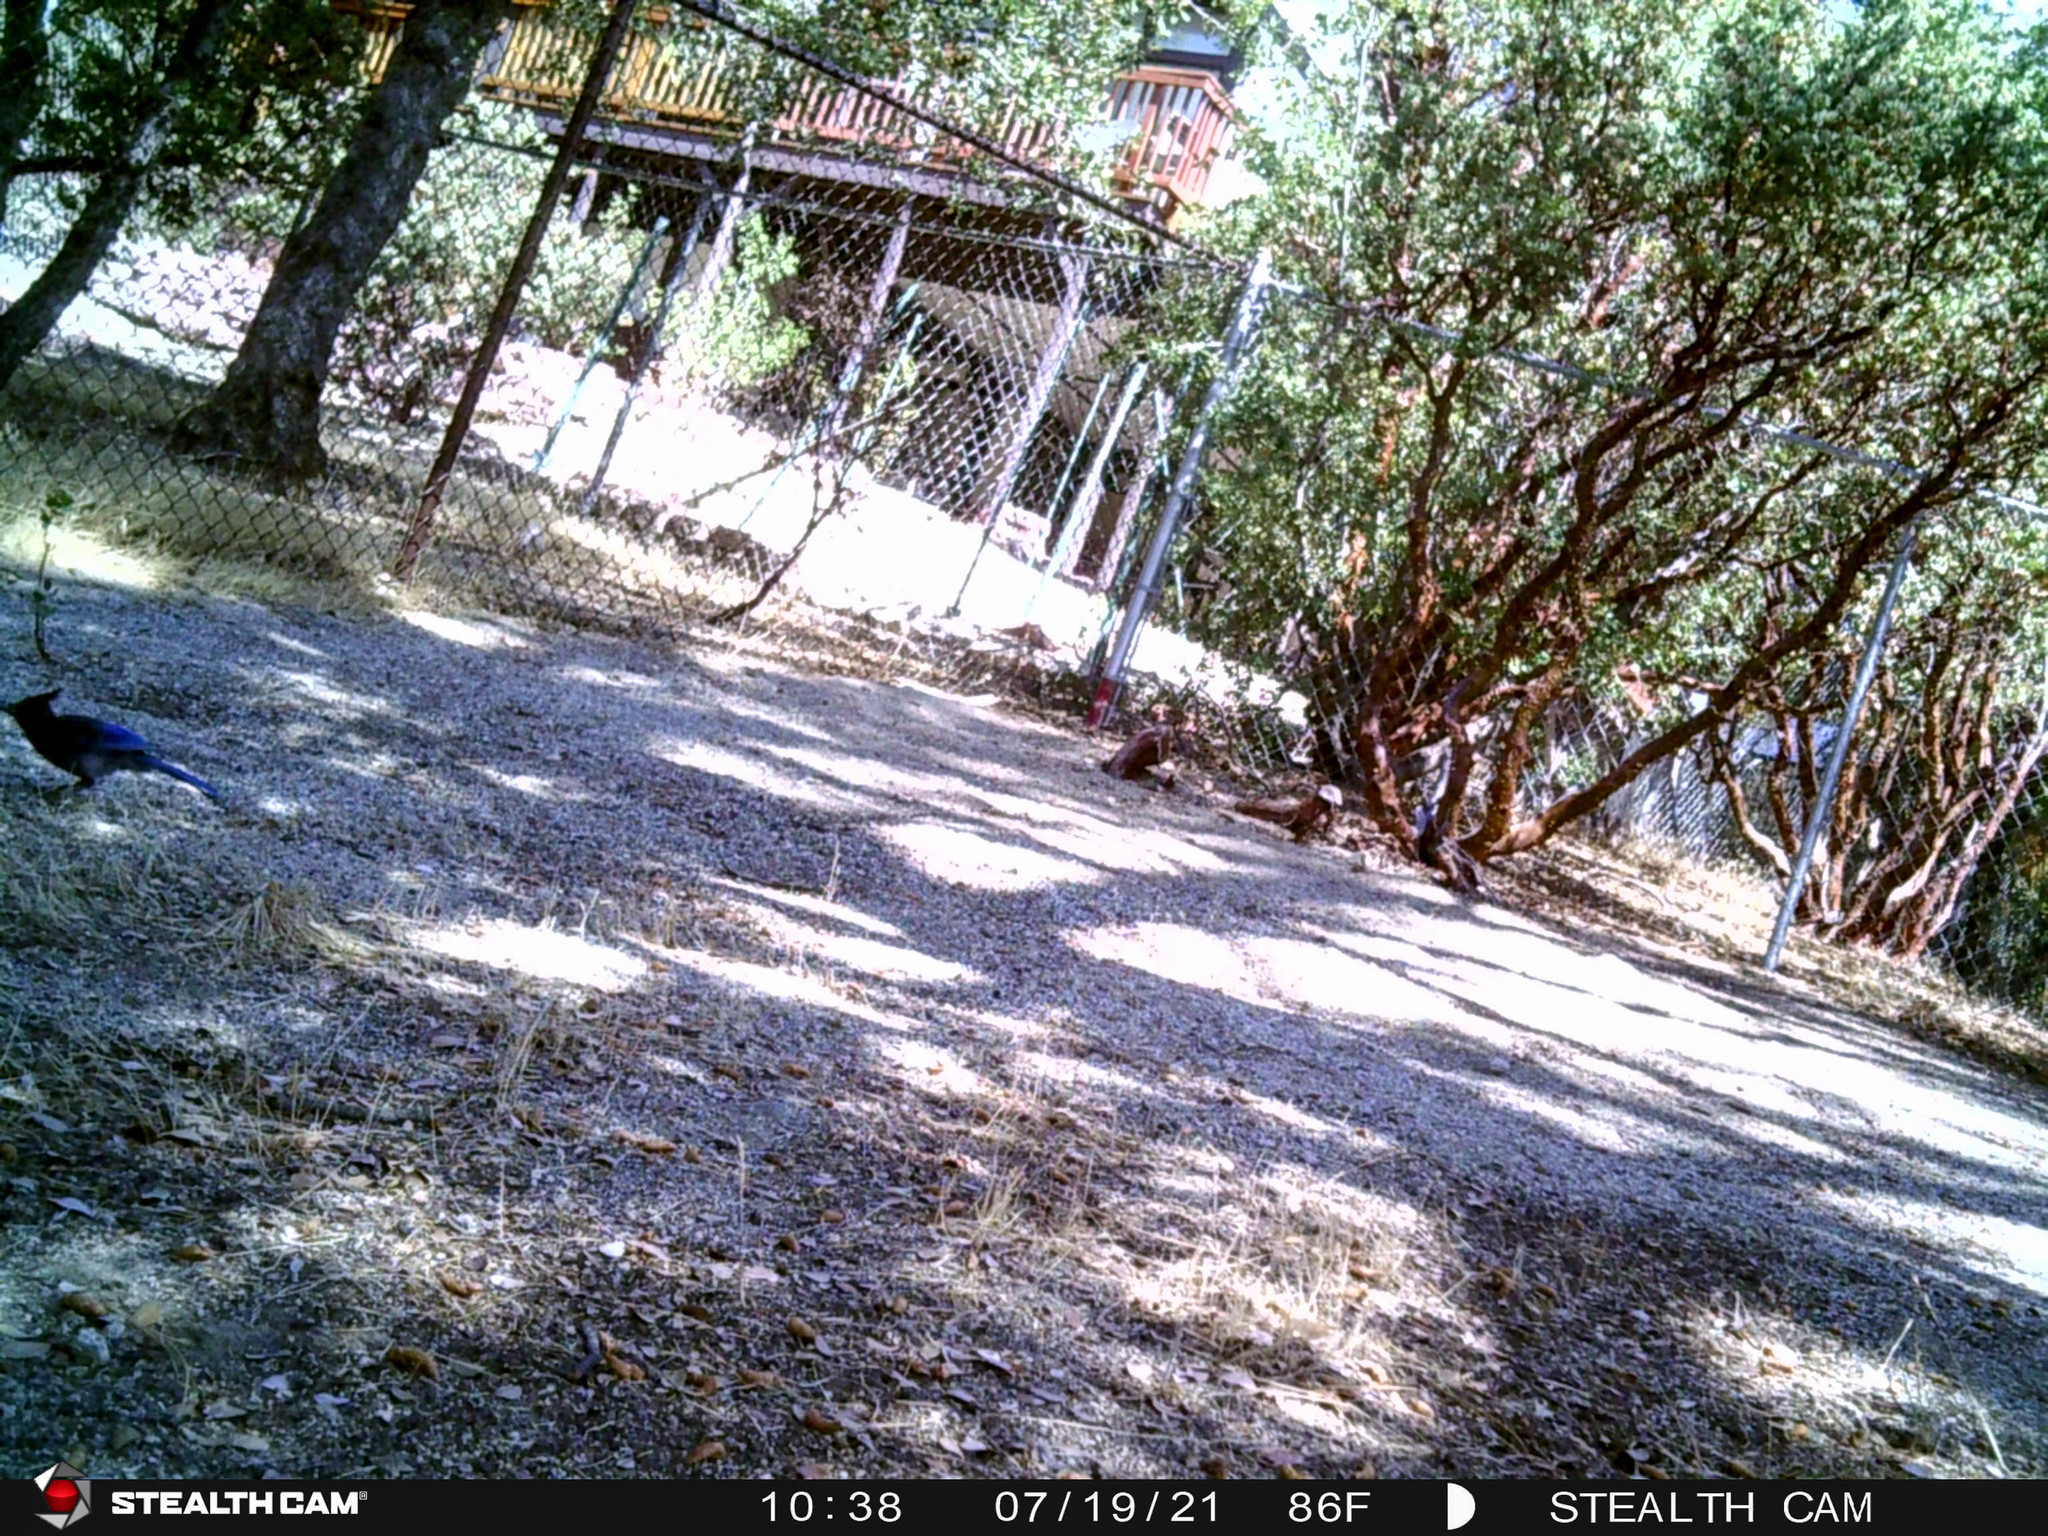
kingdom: Animalia
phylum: Chordata
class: Aves
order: Passeriformes
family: Corvidae
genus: Cyanocitta
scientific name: Cyanocitta stelleri
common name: Steller's jay
